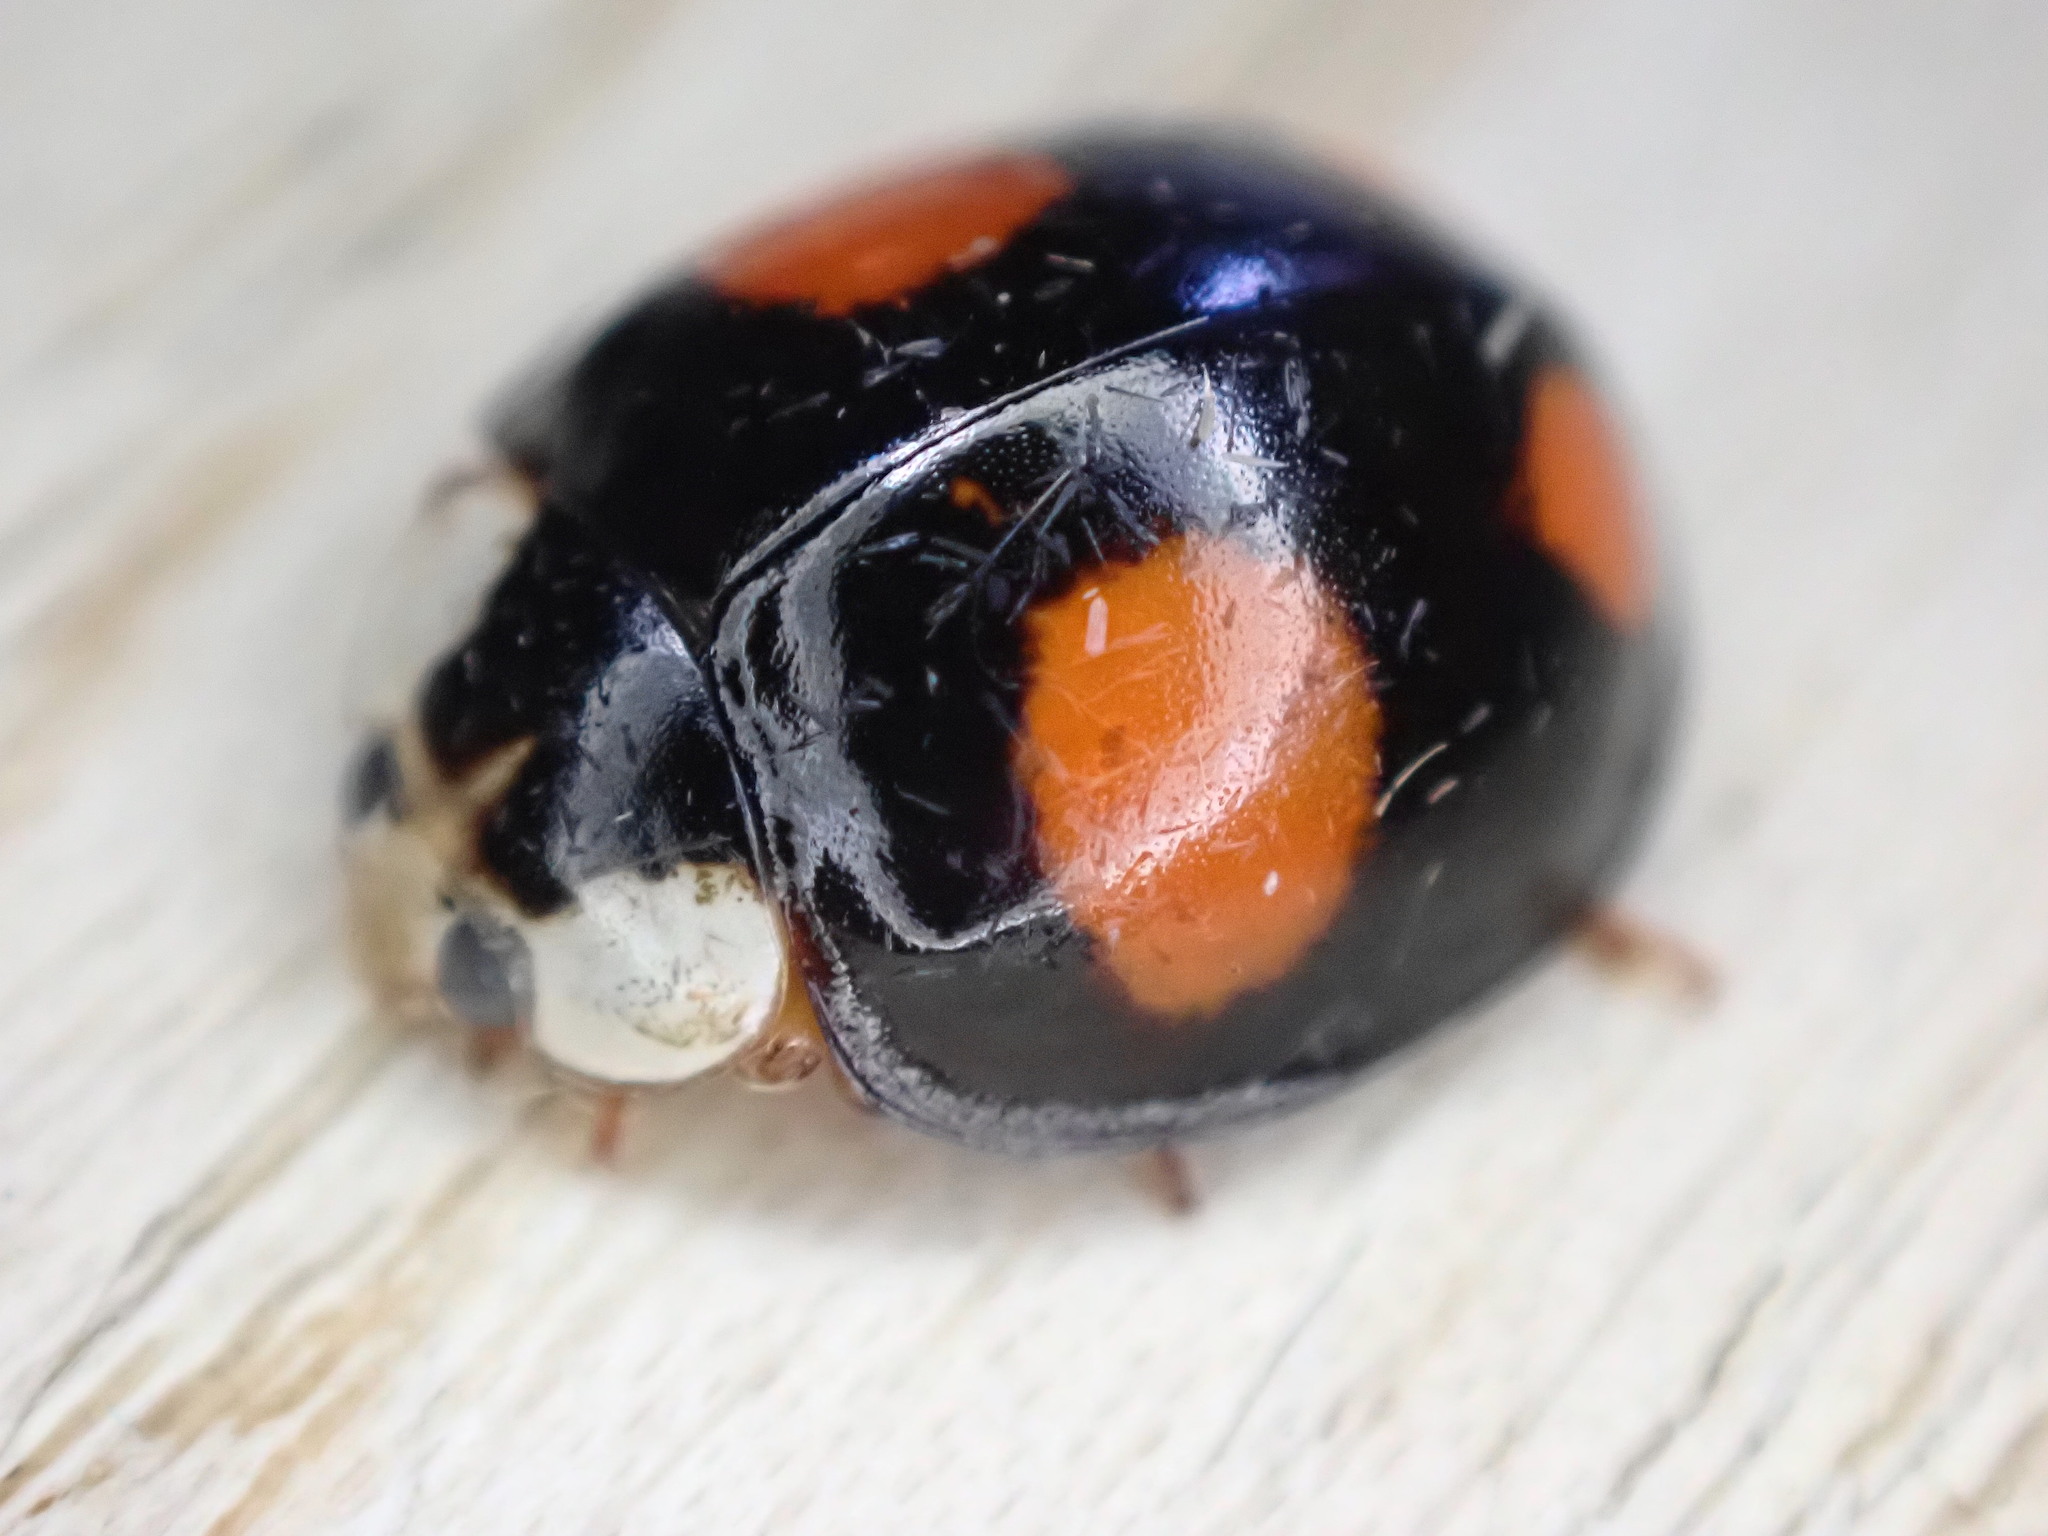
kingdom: Animalia
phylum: Arthropoda
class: Insecta
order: Coleoptera
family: Coccinellidae
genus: Harmonia
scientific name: Harmonia axyridis
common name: Harlequin ladybird
